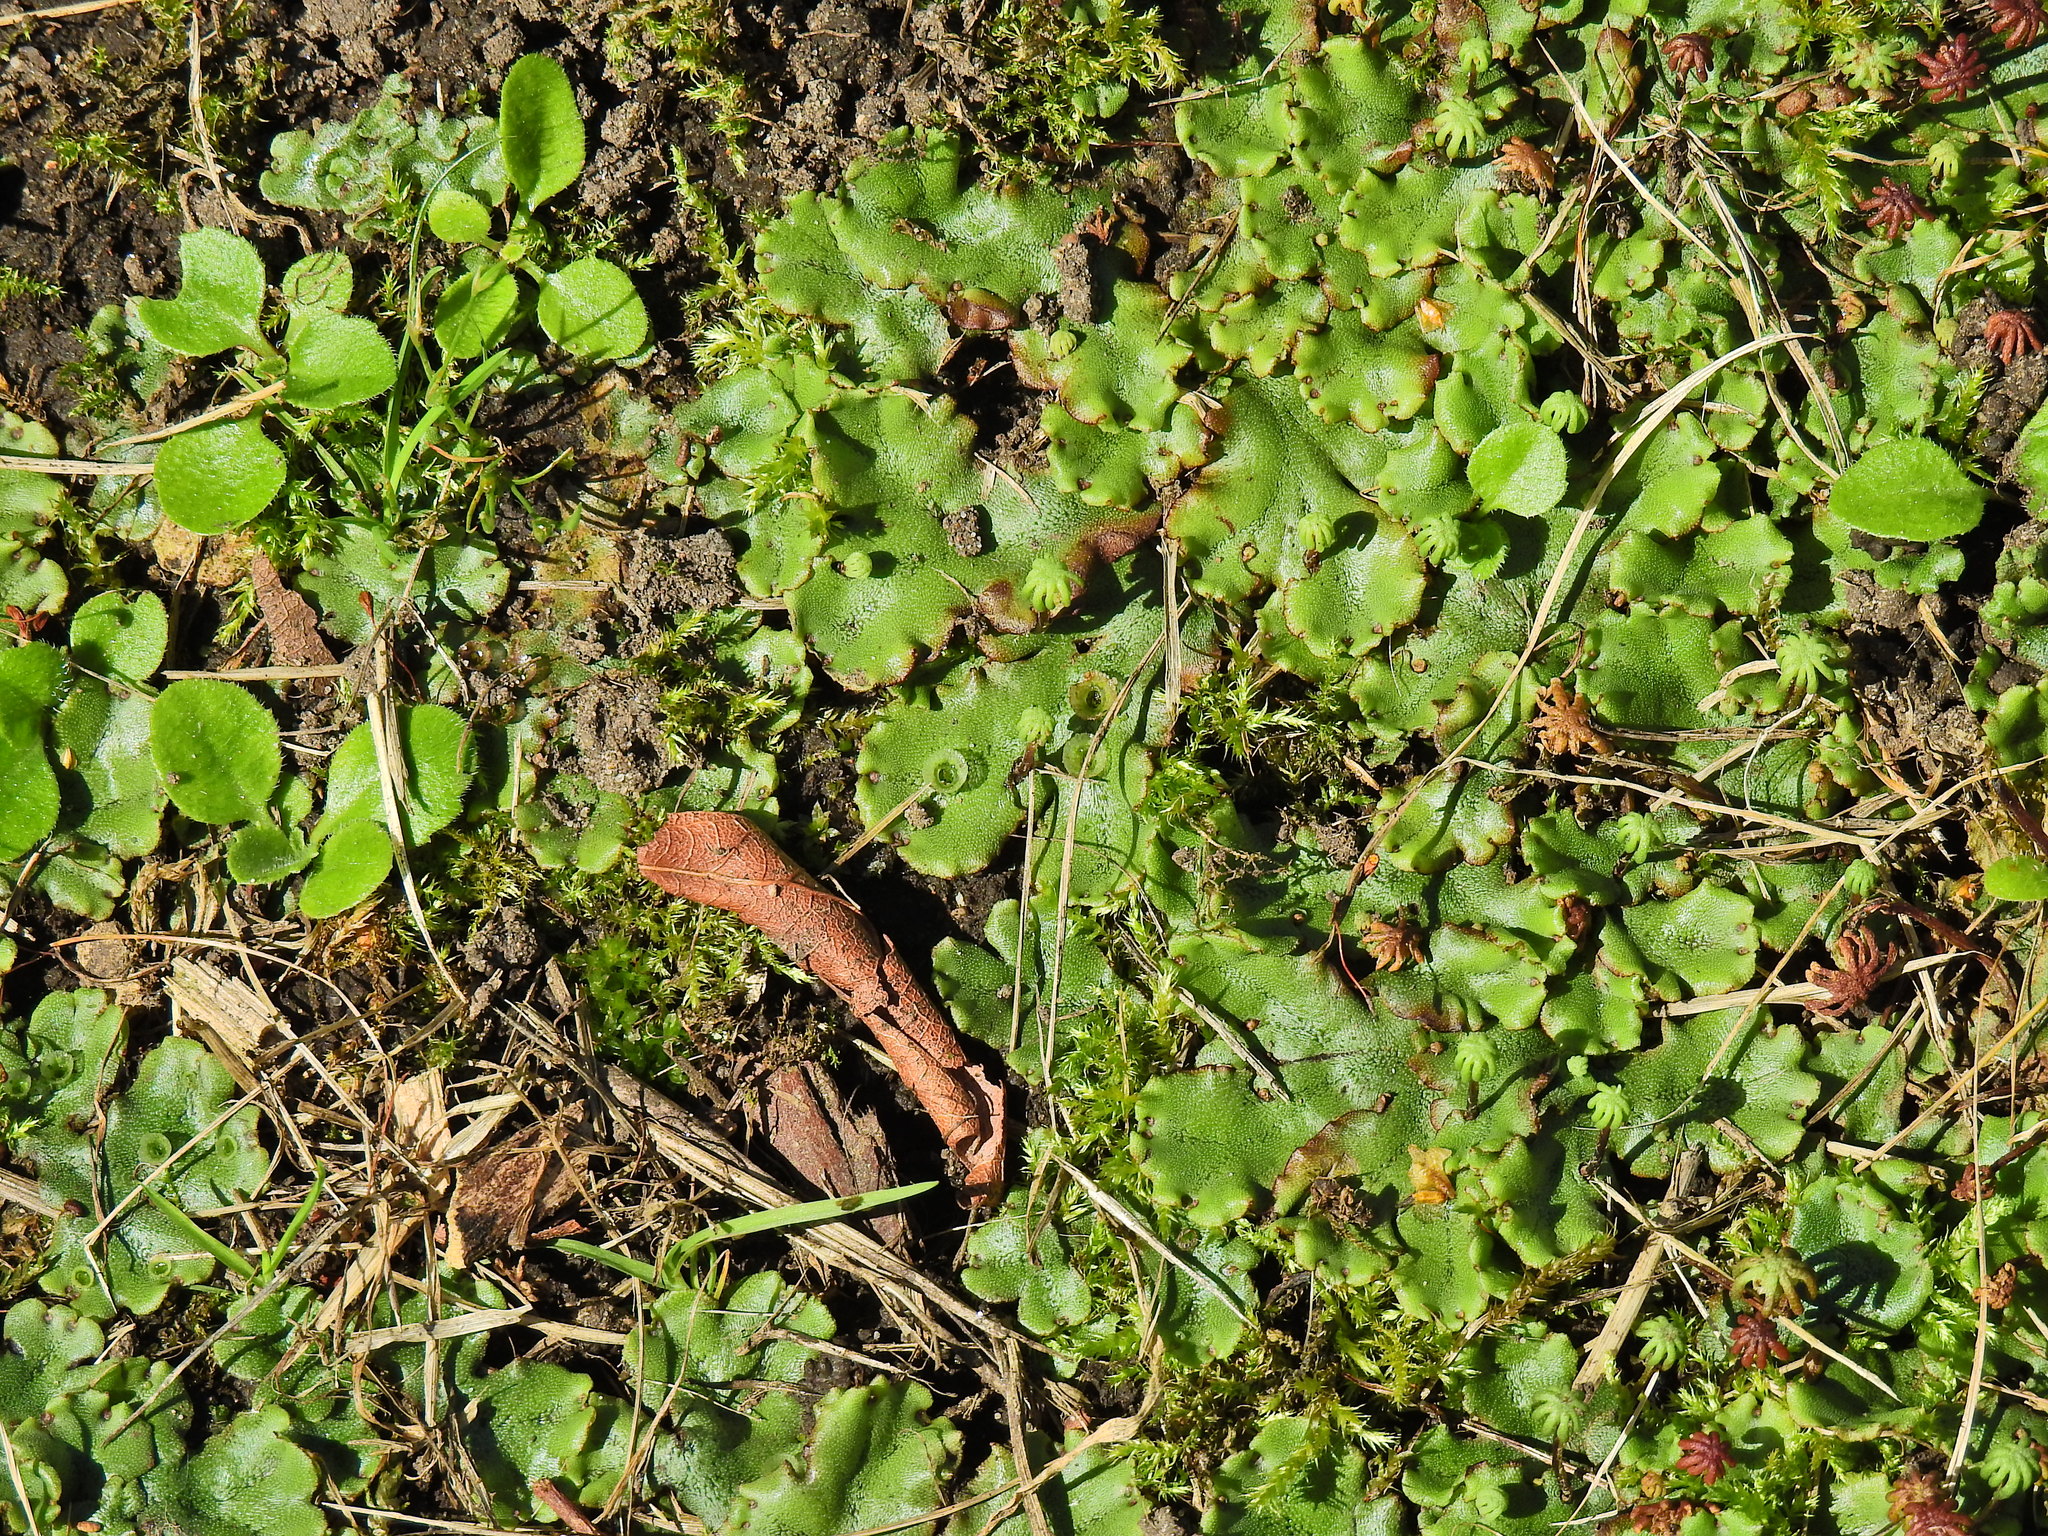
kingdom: Plantae
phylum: Marchantiophyta
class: Marchantiopsida
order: Marchantiales
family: Marchantiaceae
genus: Marchantia
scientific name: Marchantia polymorpha
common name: Common liverwort
